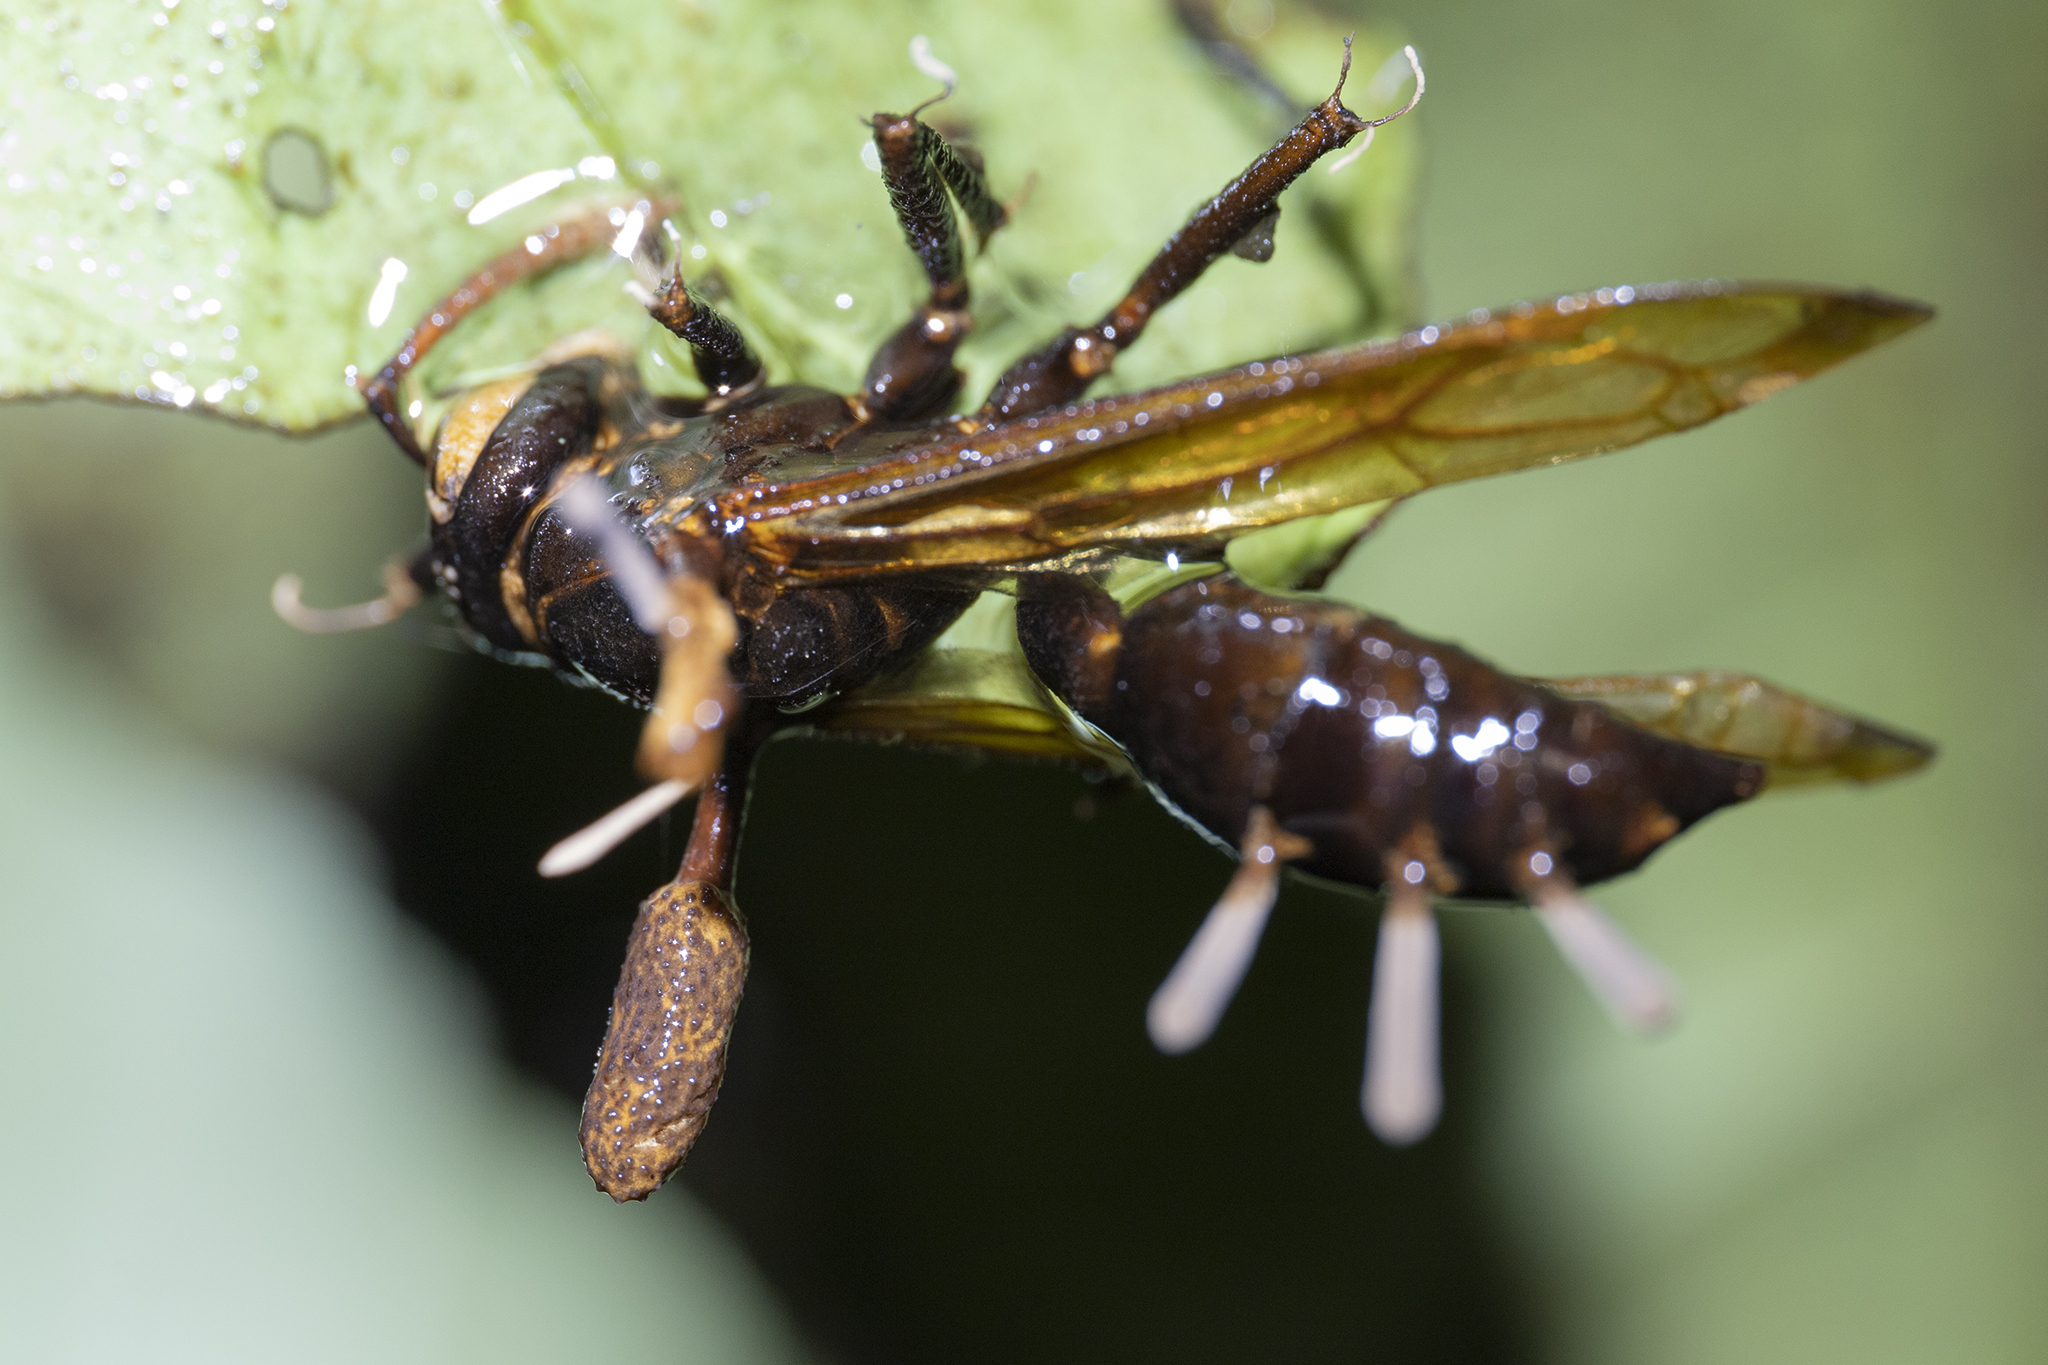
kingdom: Fungi
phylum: Ascomycota
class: Sordariomycetes
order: Hypocreales
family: Ophiocordycipitaceae
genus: Ophiocordyceps
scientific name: Ophiocordyceps humbertii
